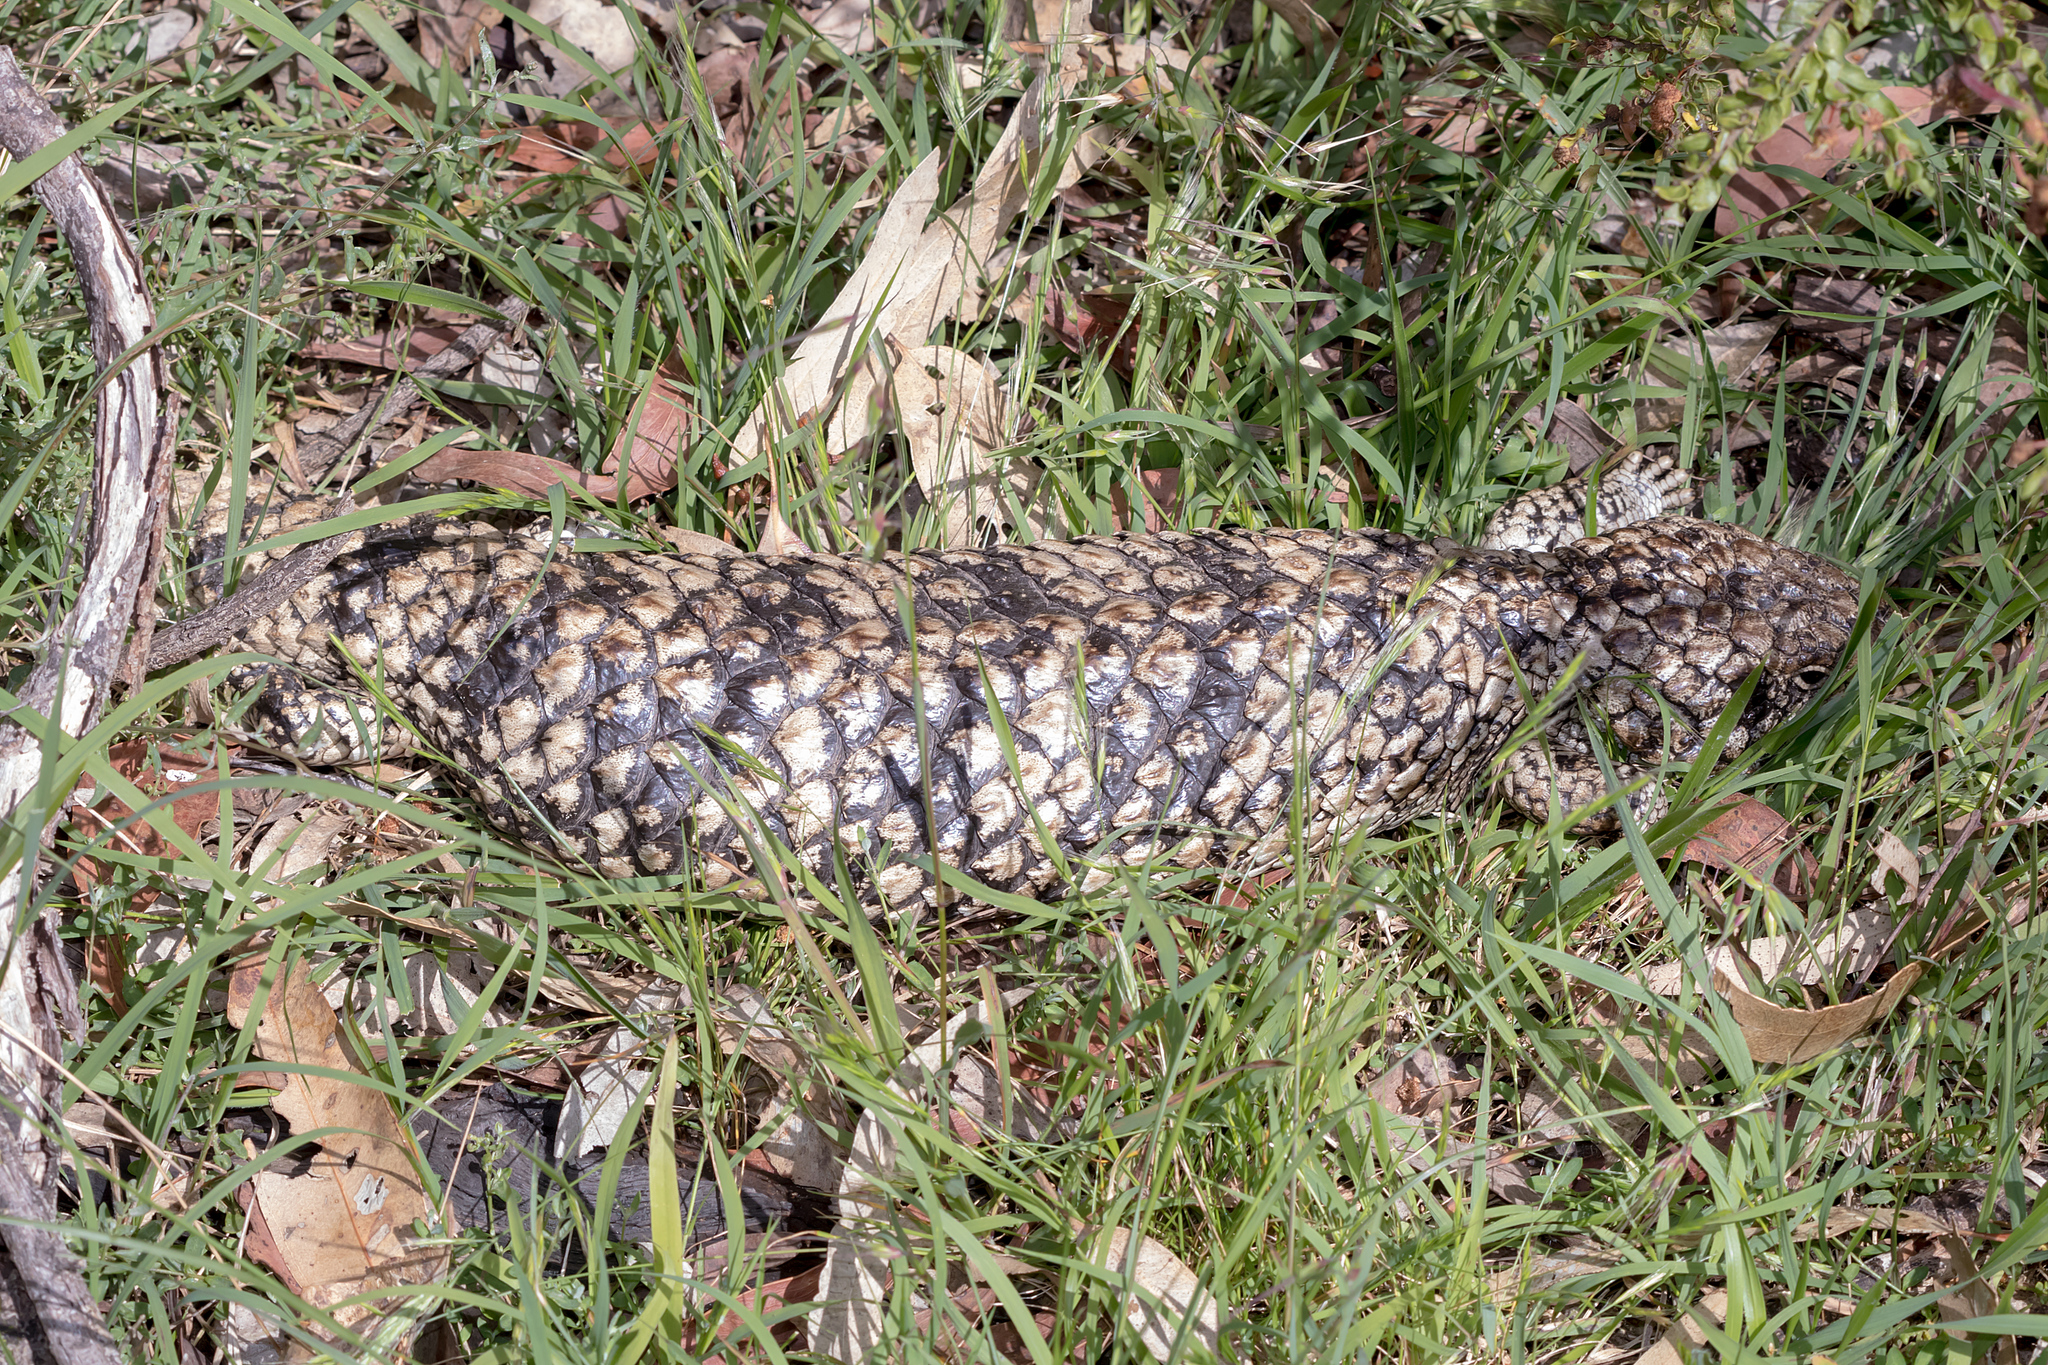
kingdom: Animalia
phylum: Chordata
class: Squamata
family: Scincidae
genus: Tiliqua
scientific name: Tiliqua rugosa
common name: Pinecone lizard
